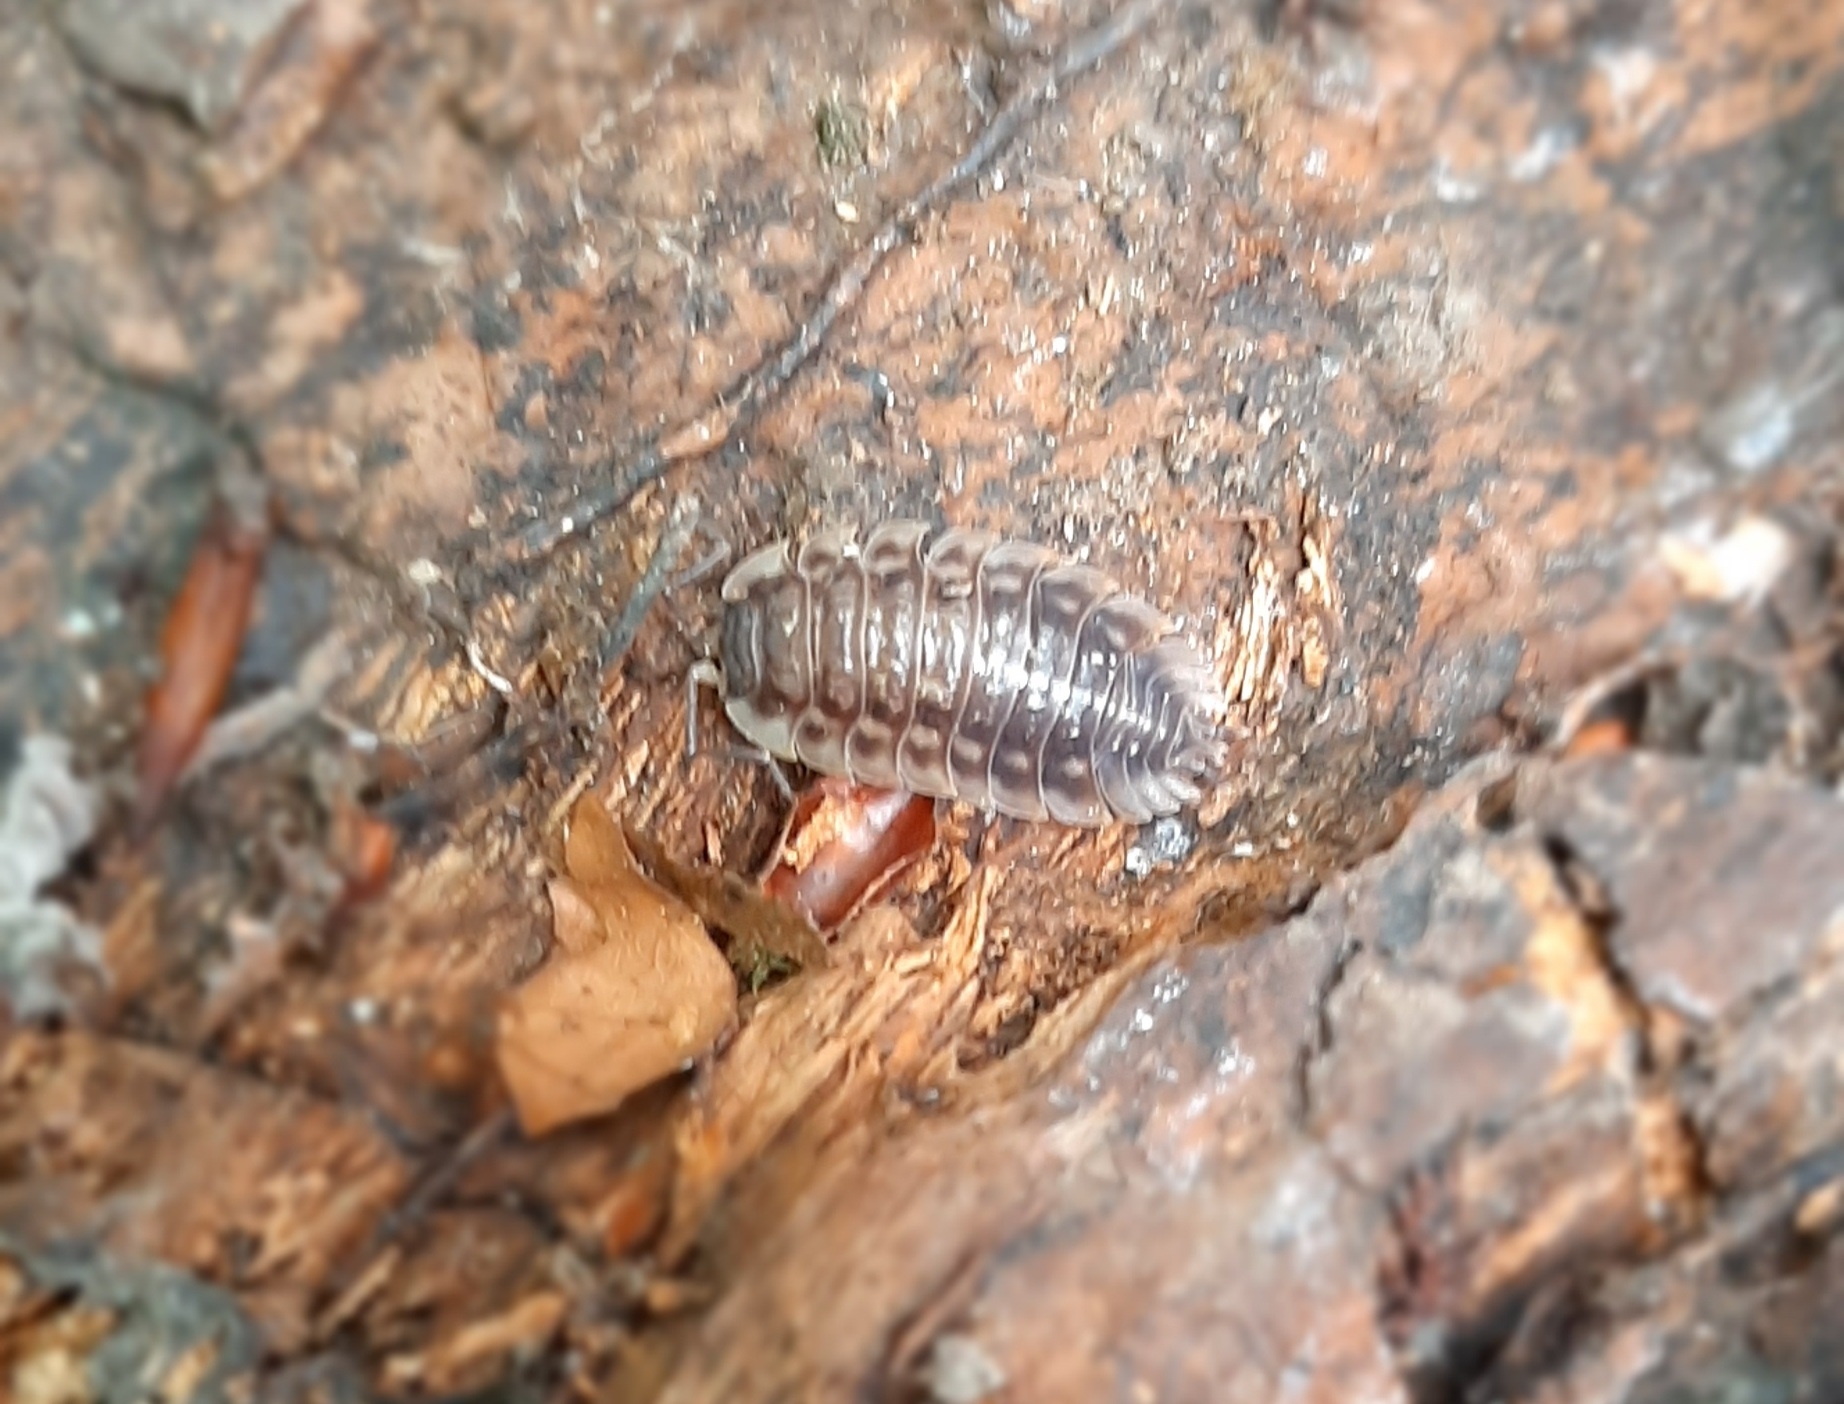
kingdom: Animalia
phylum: Arthropoda
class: Malacostraca
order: Isopoda
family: Oniscidae
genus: Oniscus
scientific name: Oniscus asellus
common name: Common shiny woodlouse
